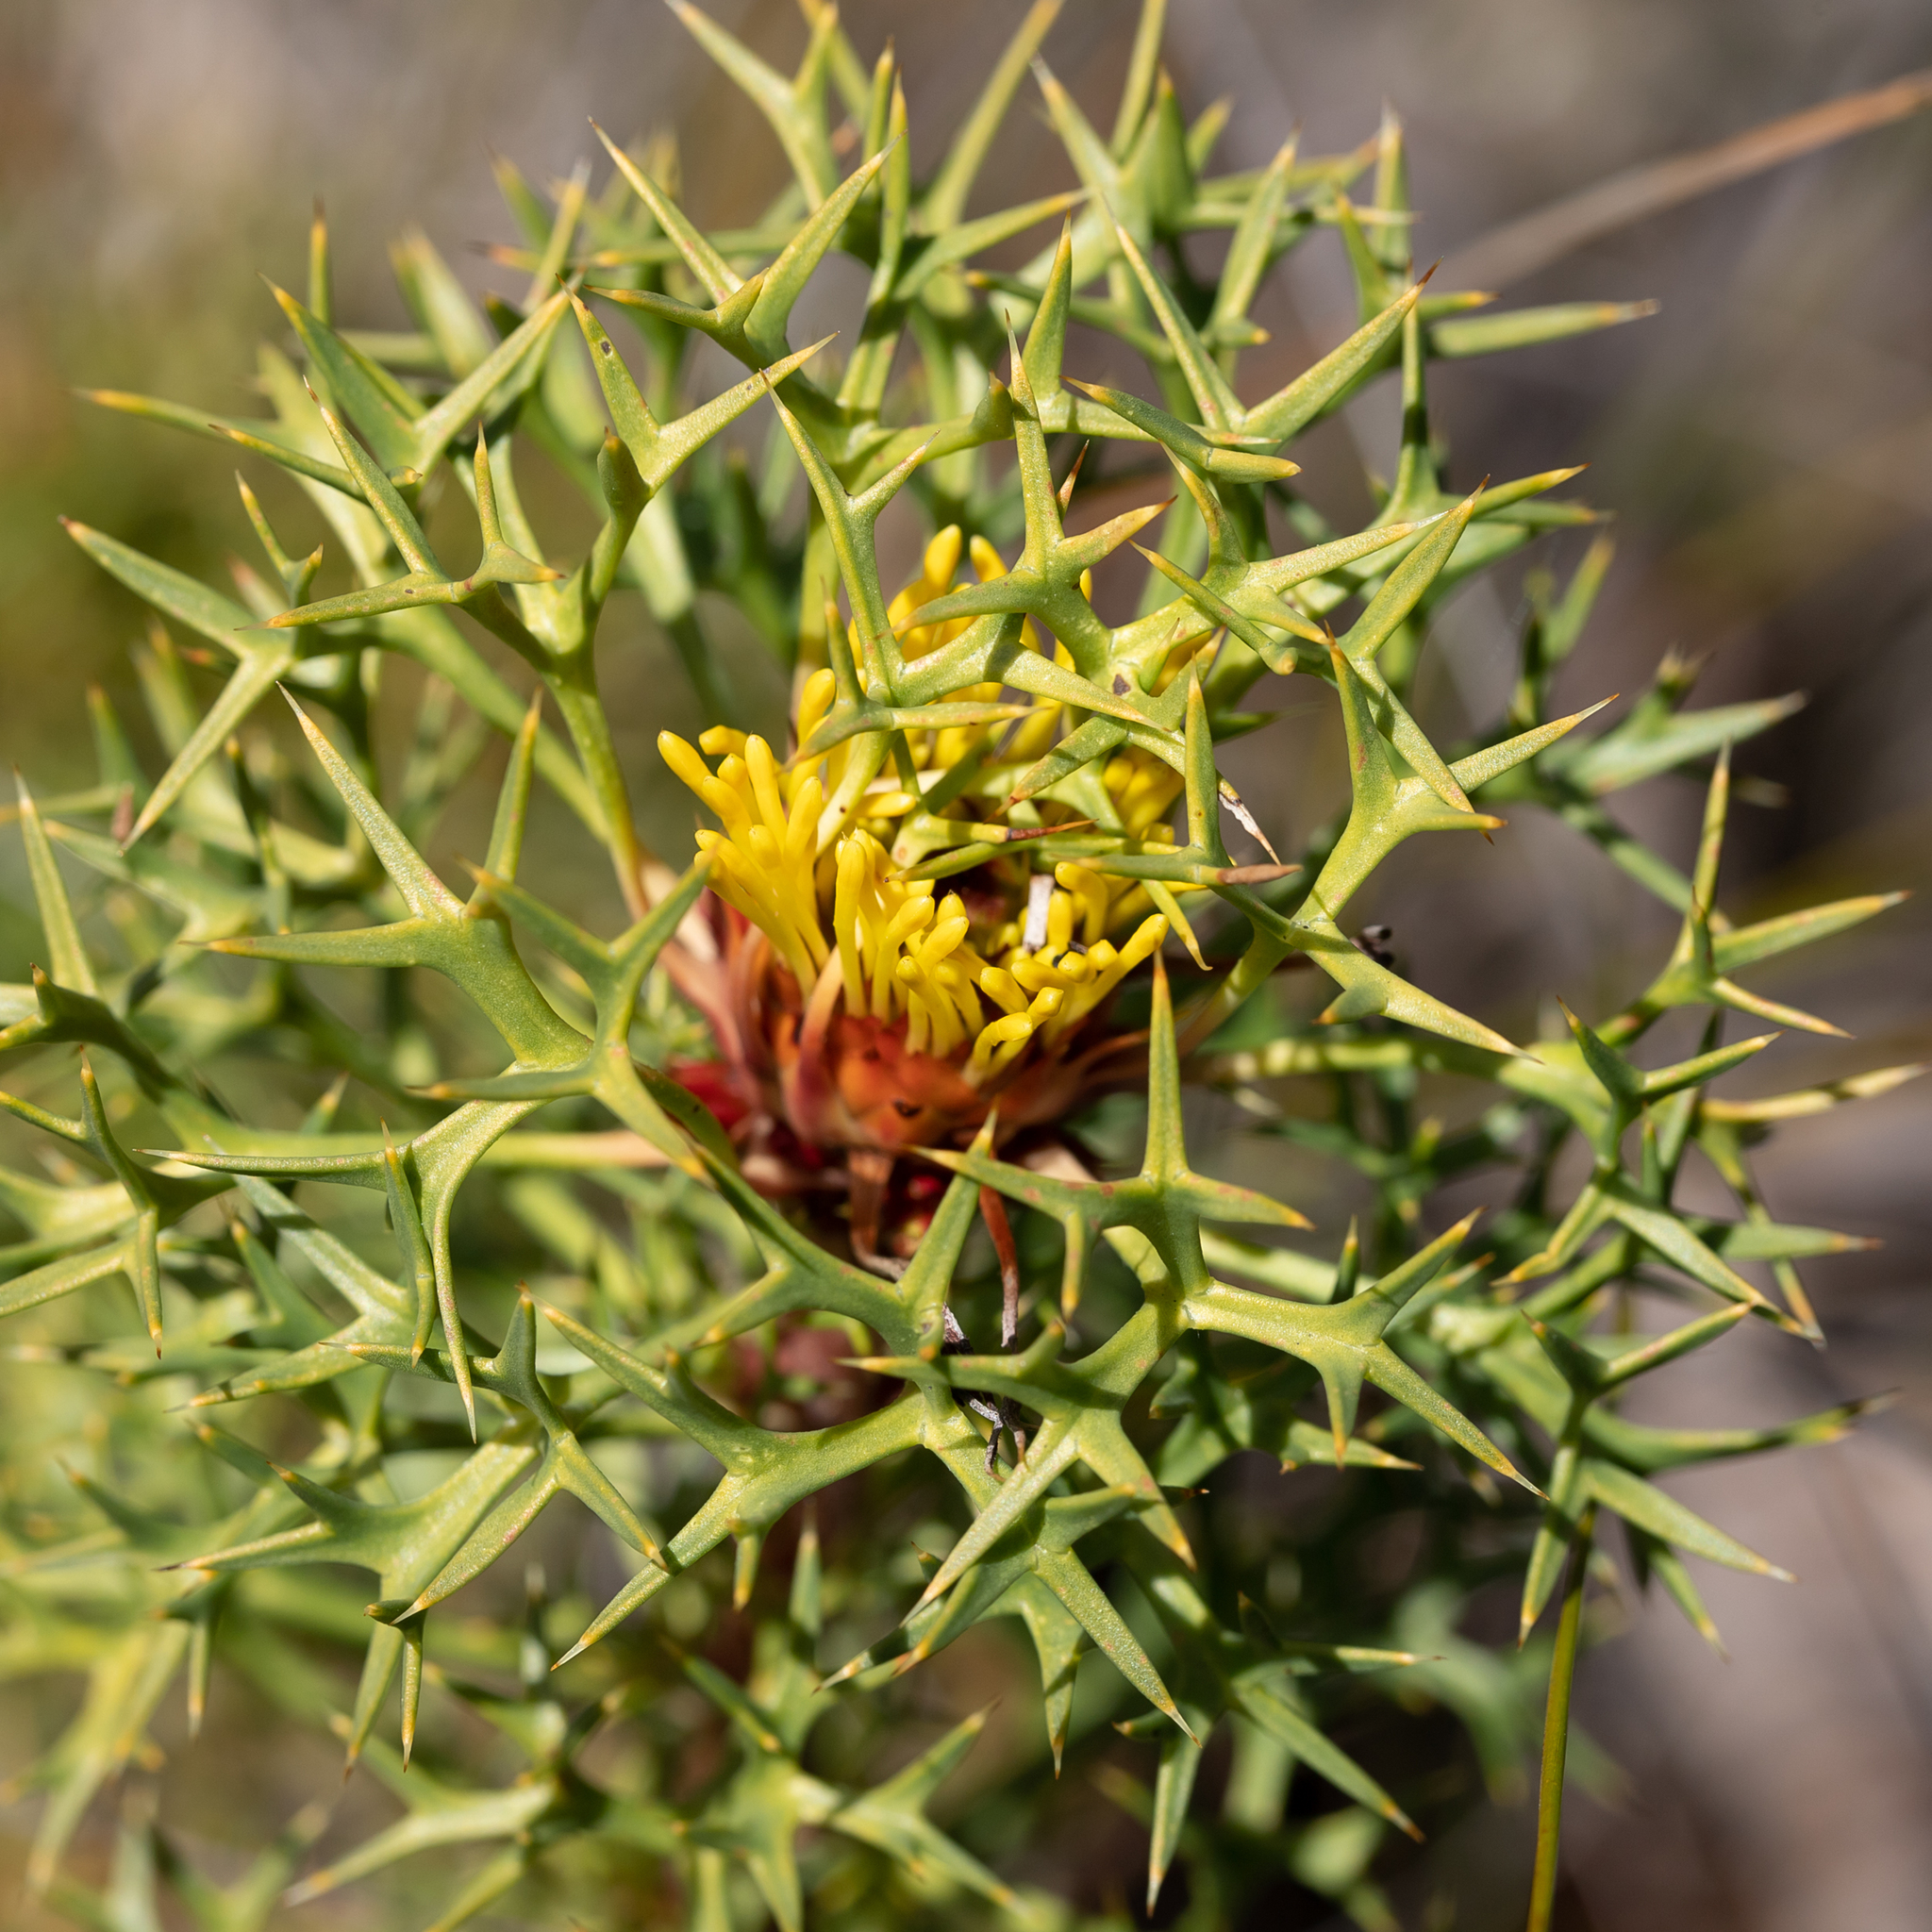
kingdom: Plantae
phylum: Tracheophyta
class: Magnoliopsida
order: Proteales
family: Proteaceae
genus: Isopogon
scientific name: Isopogon ceratophyllus
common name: Horny cone-bush
